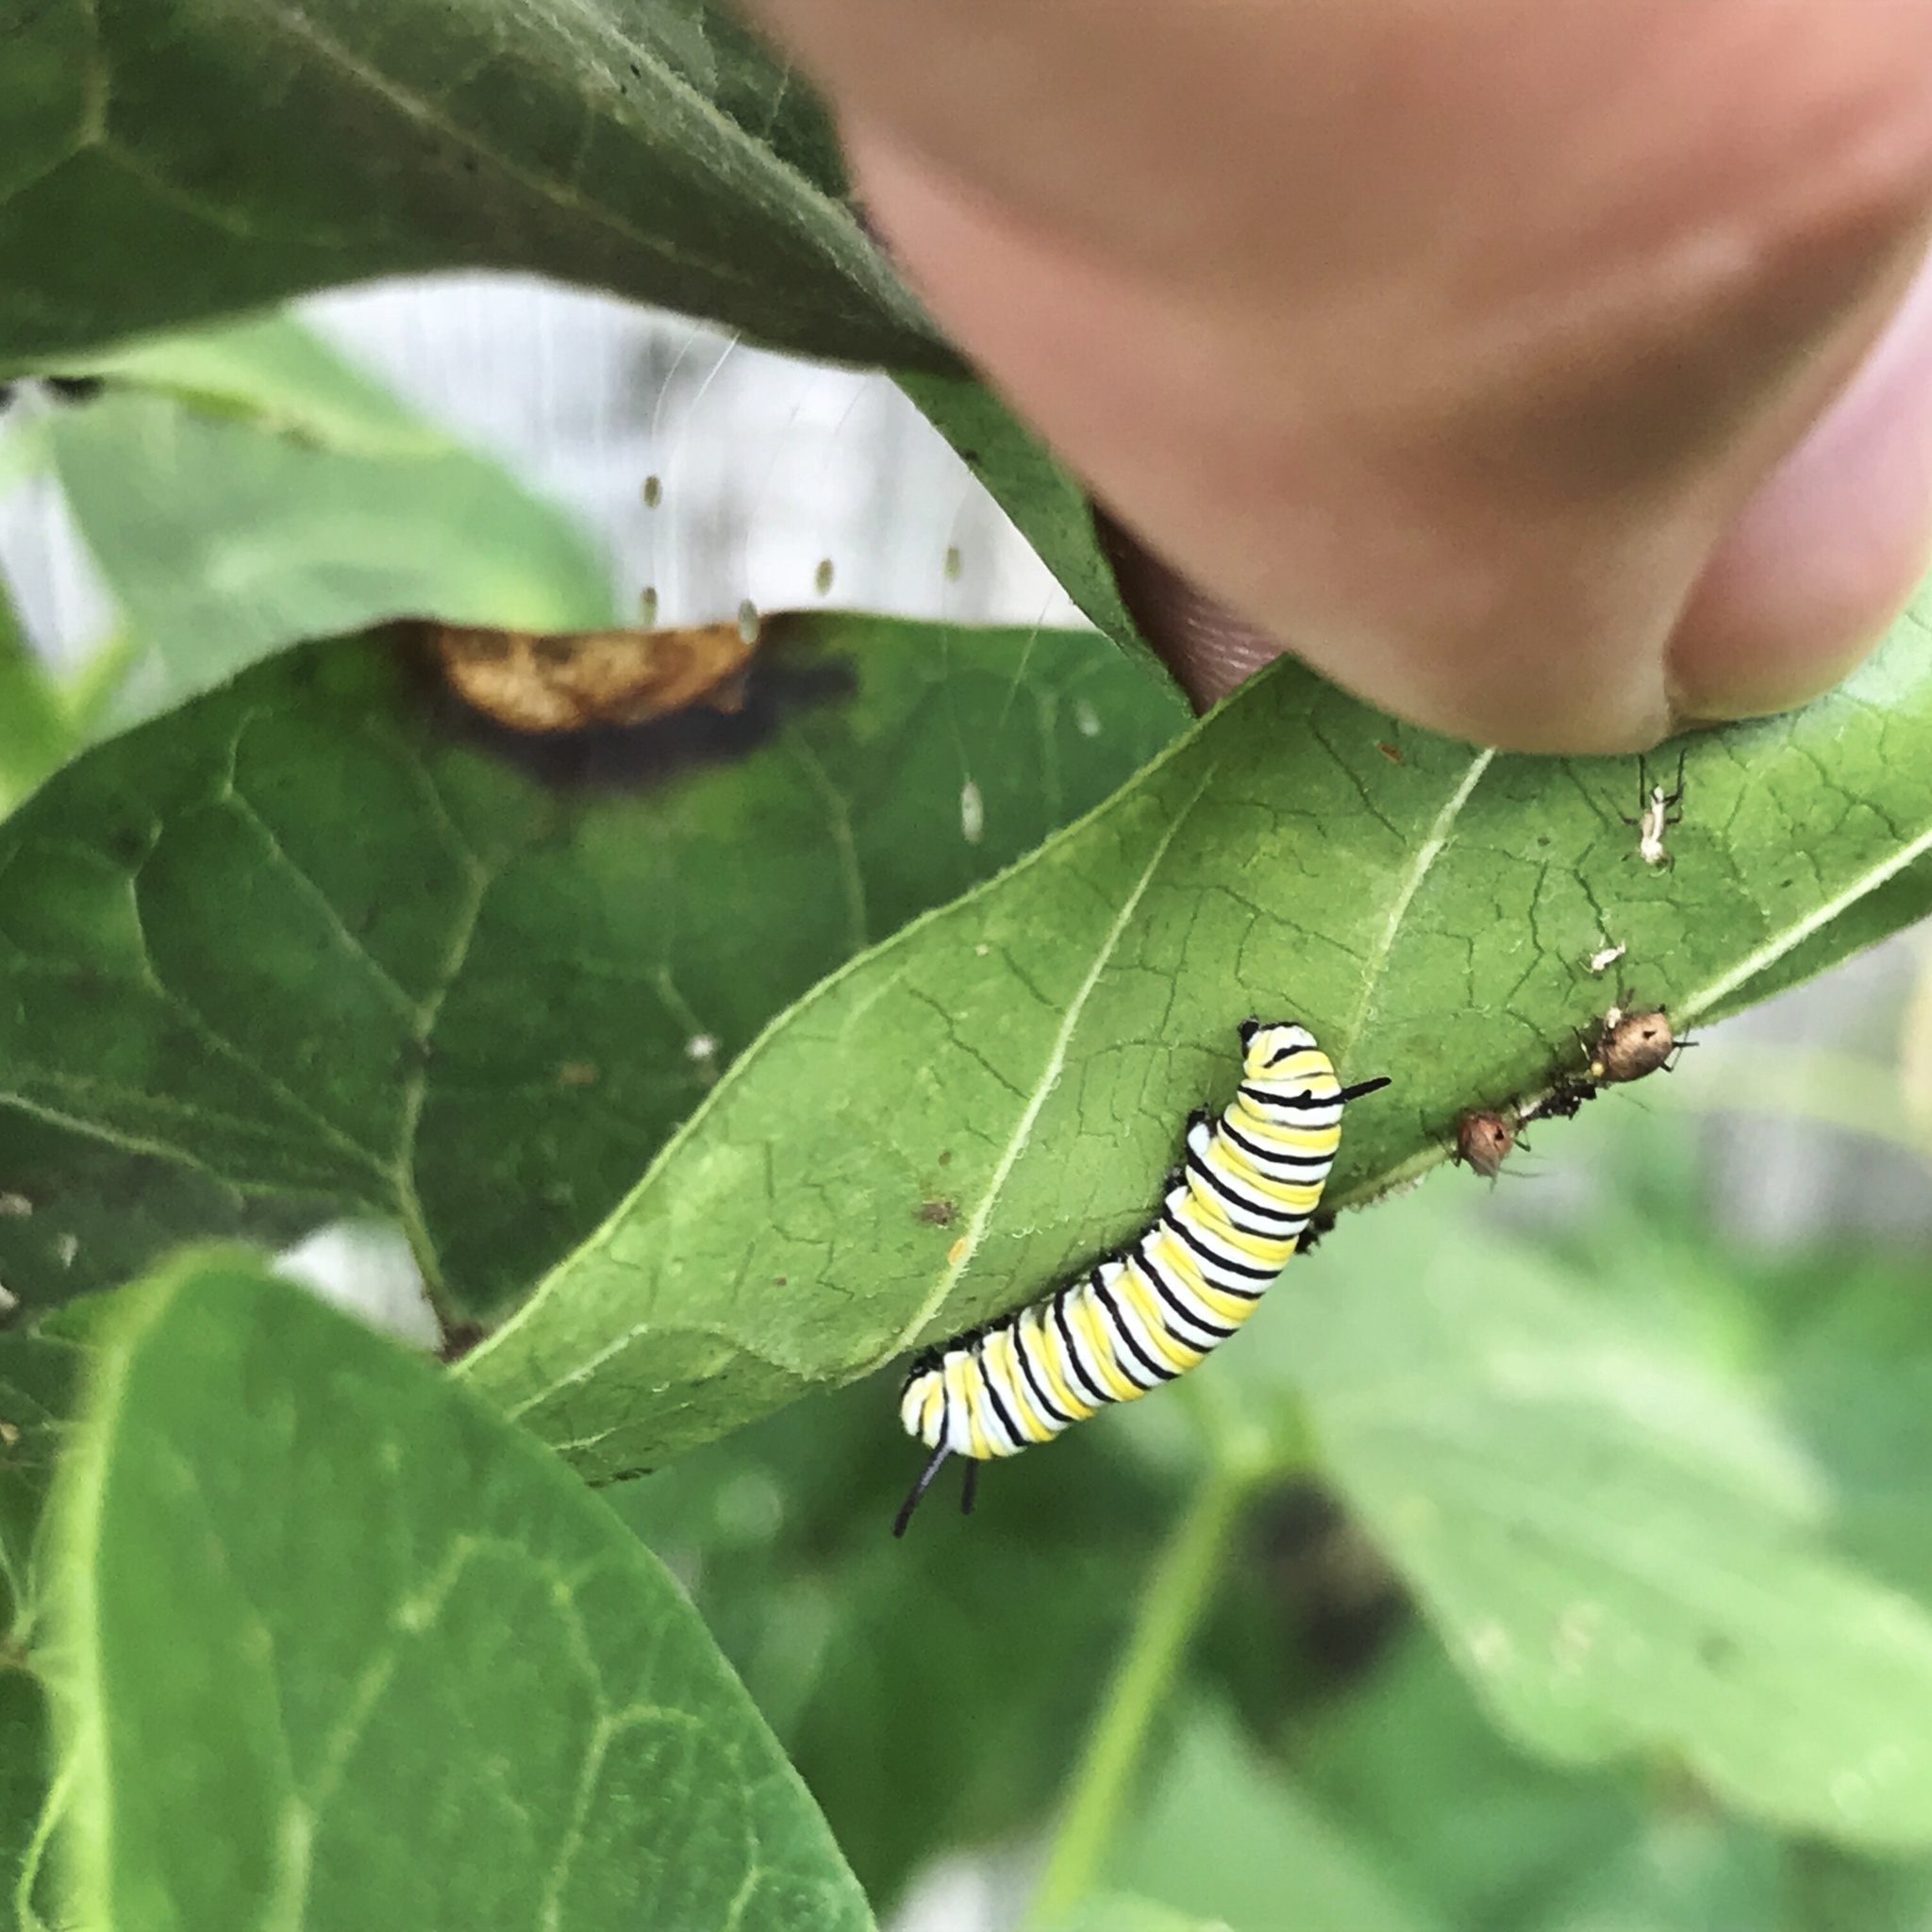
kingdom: Animalia
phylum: Arthropoda
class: Insecta
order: Lepidoptera
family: Nymphalidae
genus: Danaus
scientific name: Danaus plexippus
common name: Monarch
